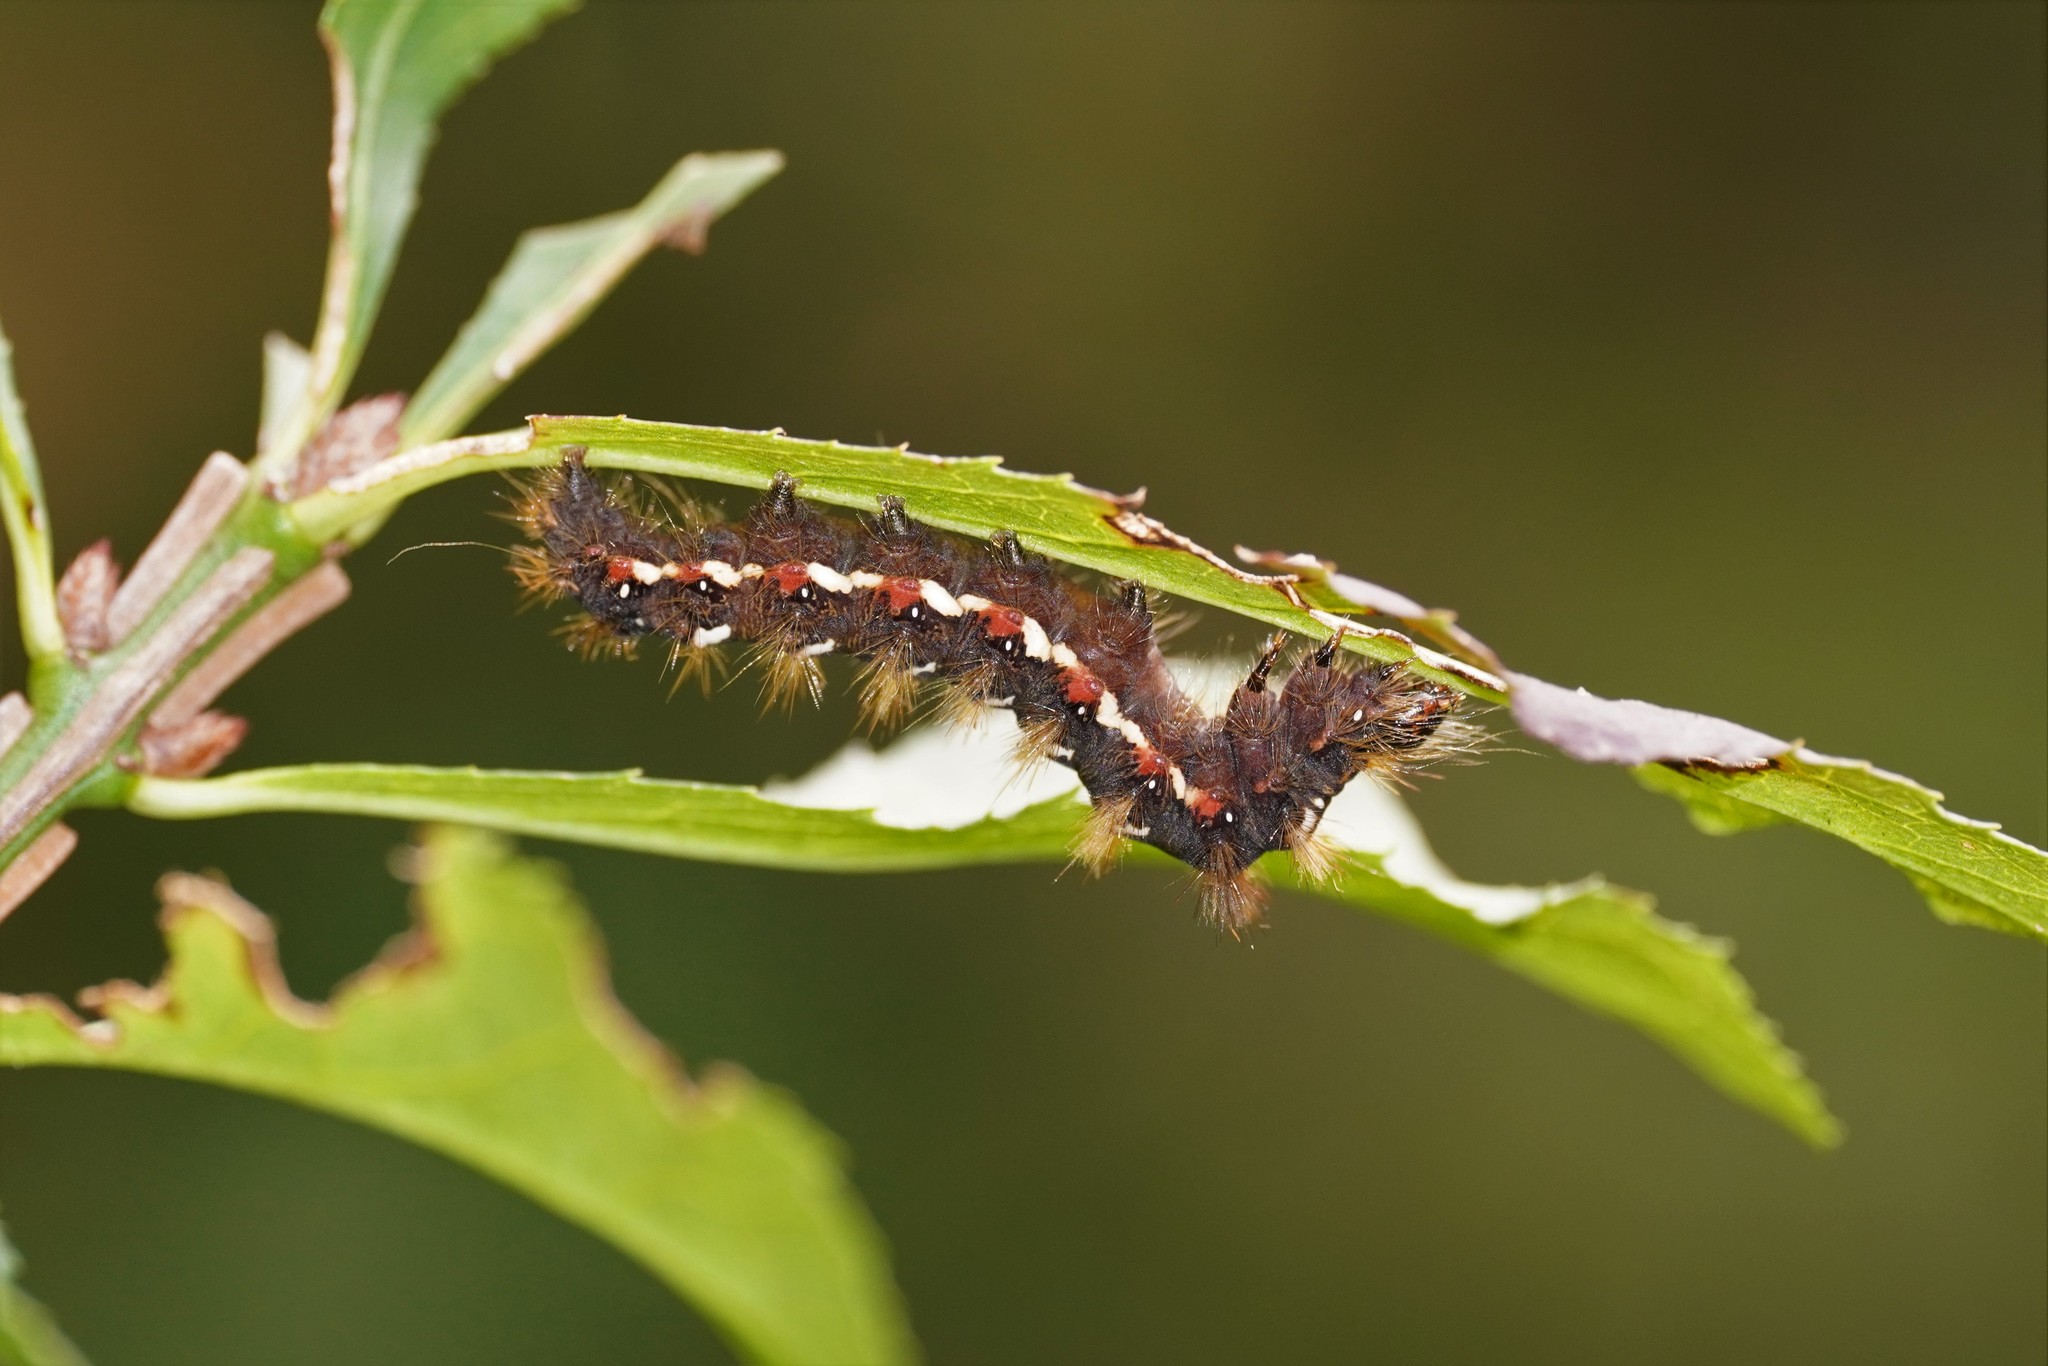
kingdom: Animalia
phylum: Arthropoda
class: Insecta
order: Lepidoptera
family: Noctuidae
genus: Acronicta
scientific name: Acronicta rumicis
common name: Knot grass
